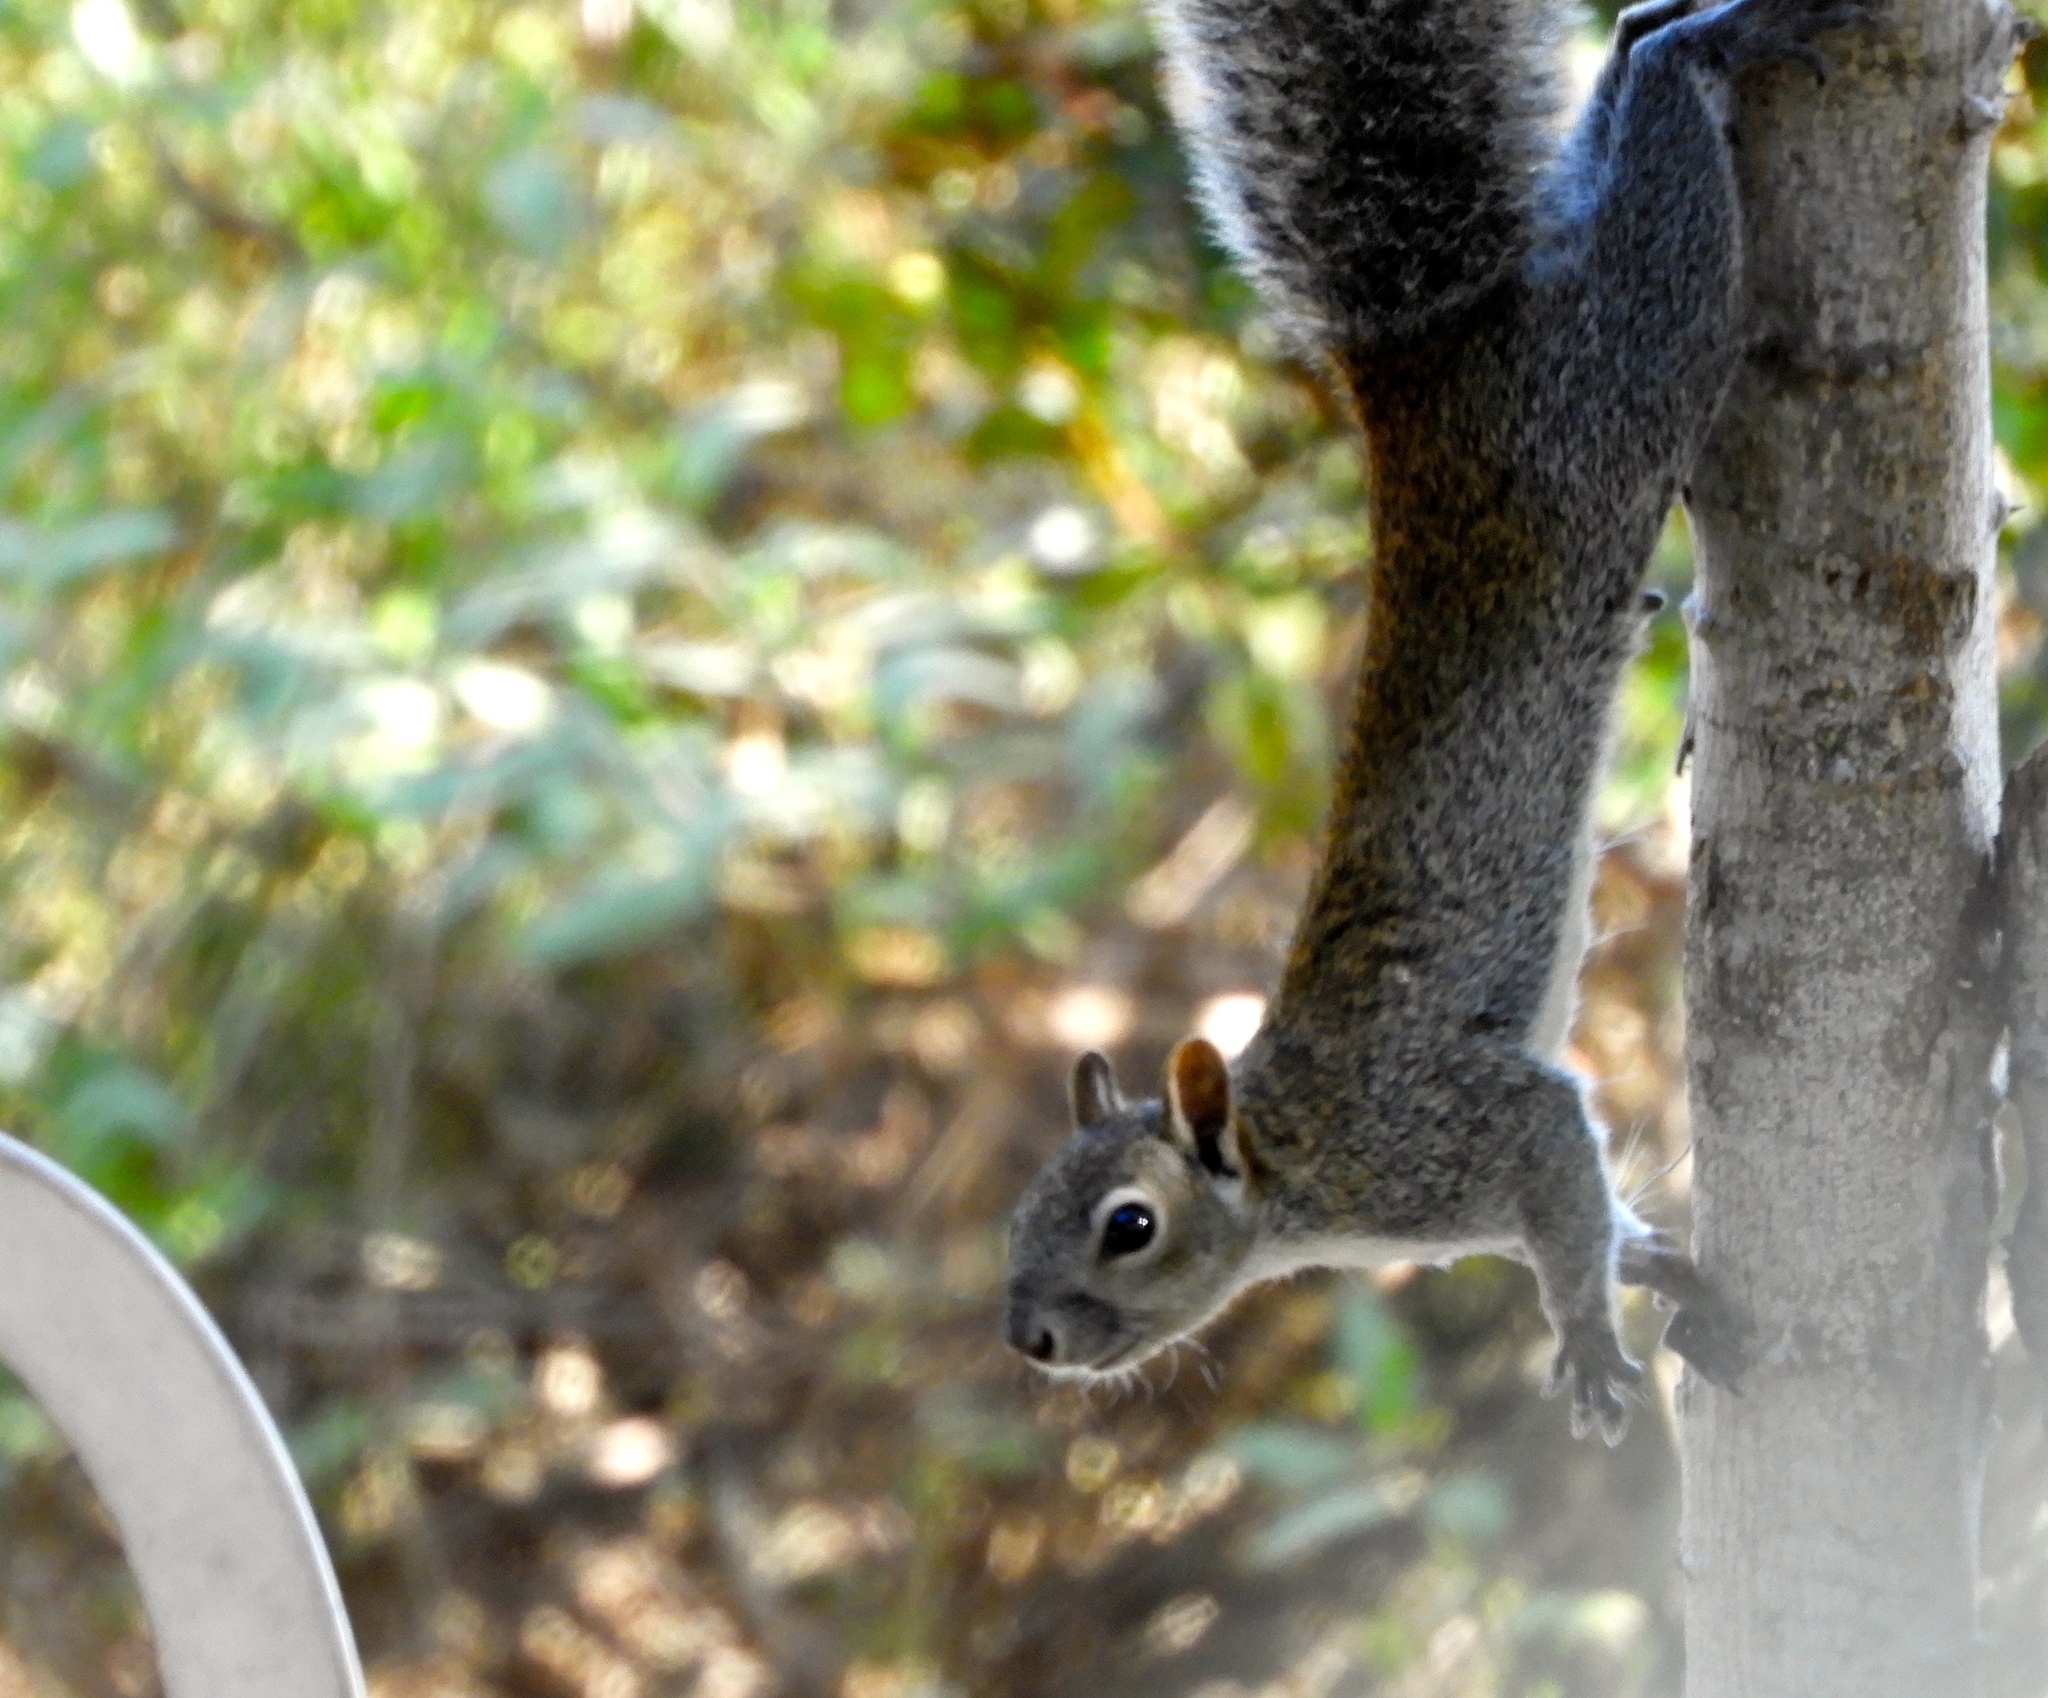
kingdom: Animalia
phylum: Chordata
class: Mammalia
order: Rodentia
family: Sciuridae
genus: Sciurus
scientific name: Sciurus colliaei
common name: Collie's squirrel
